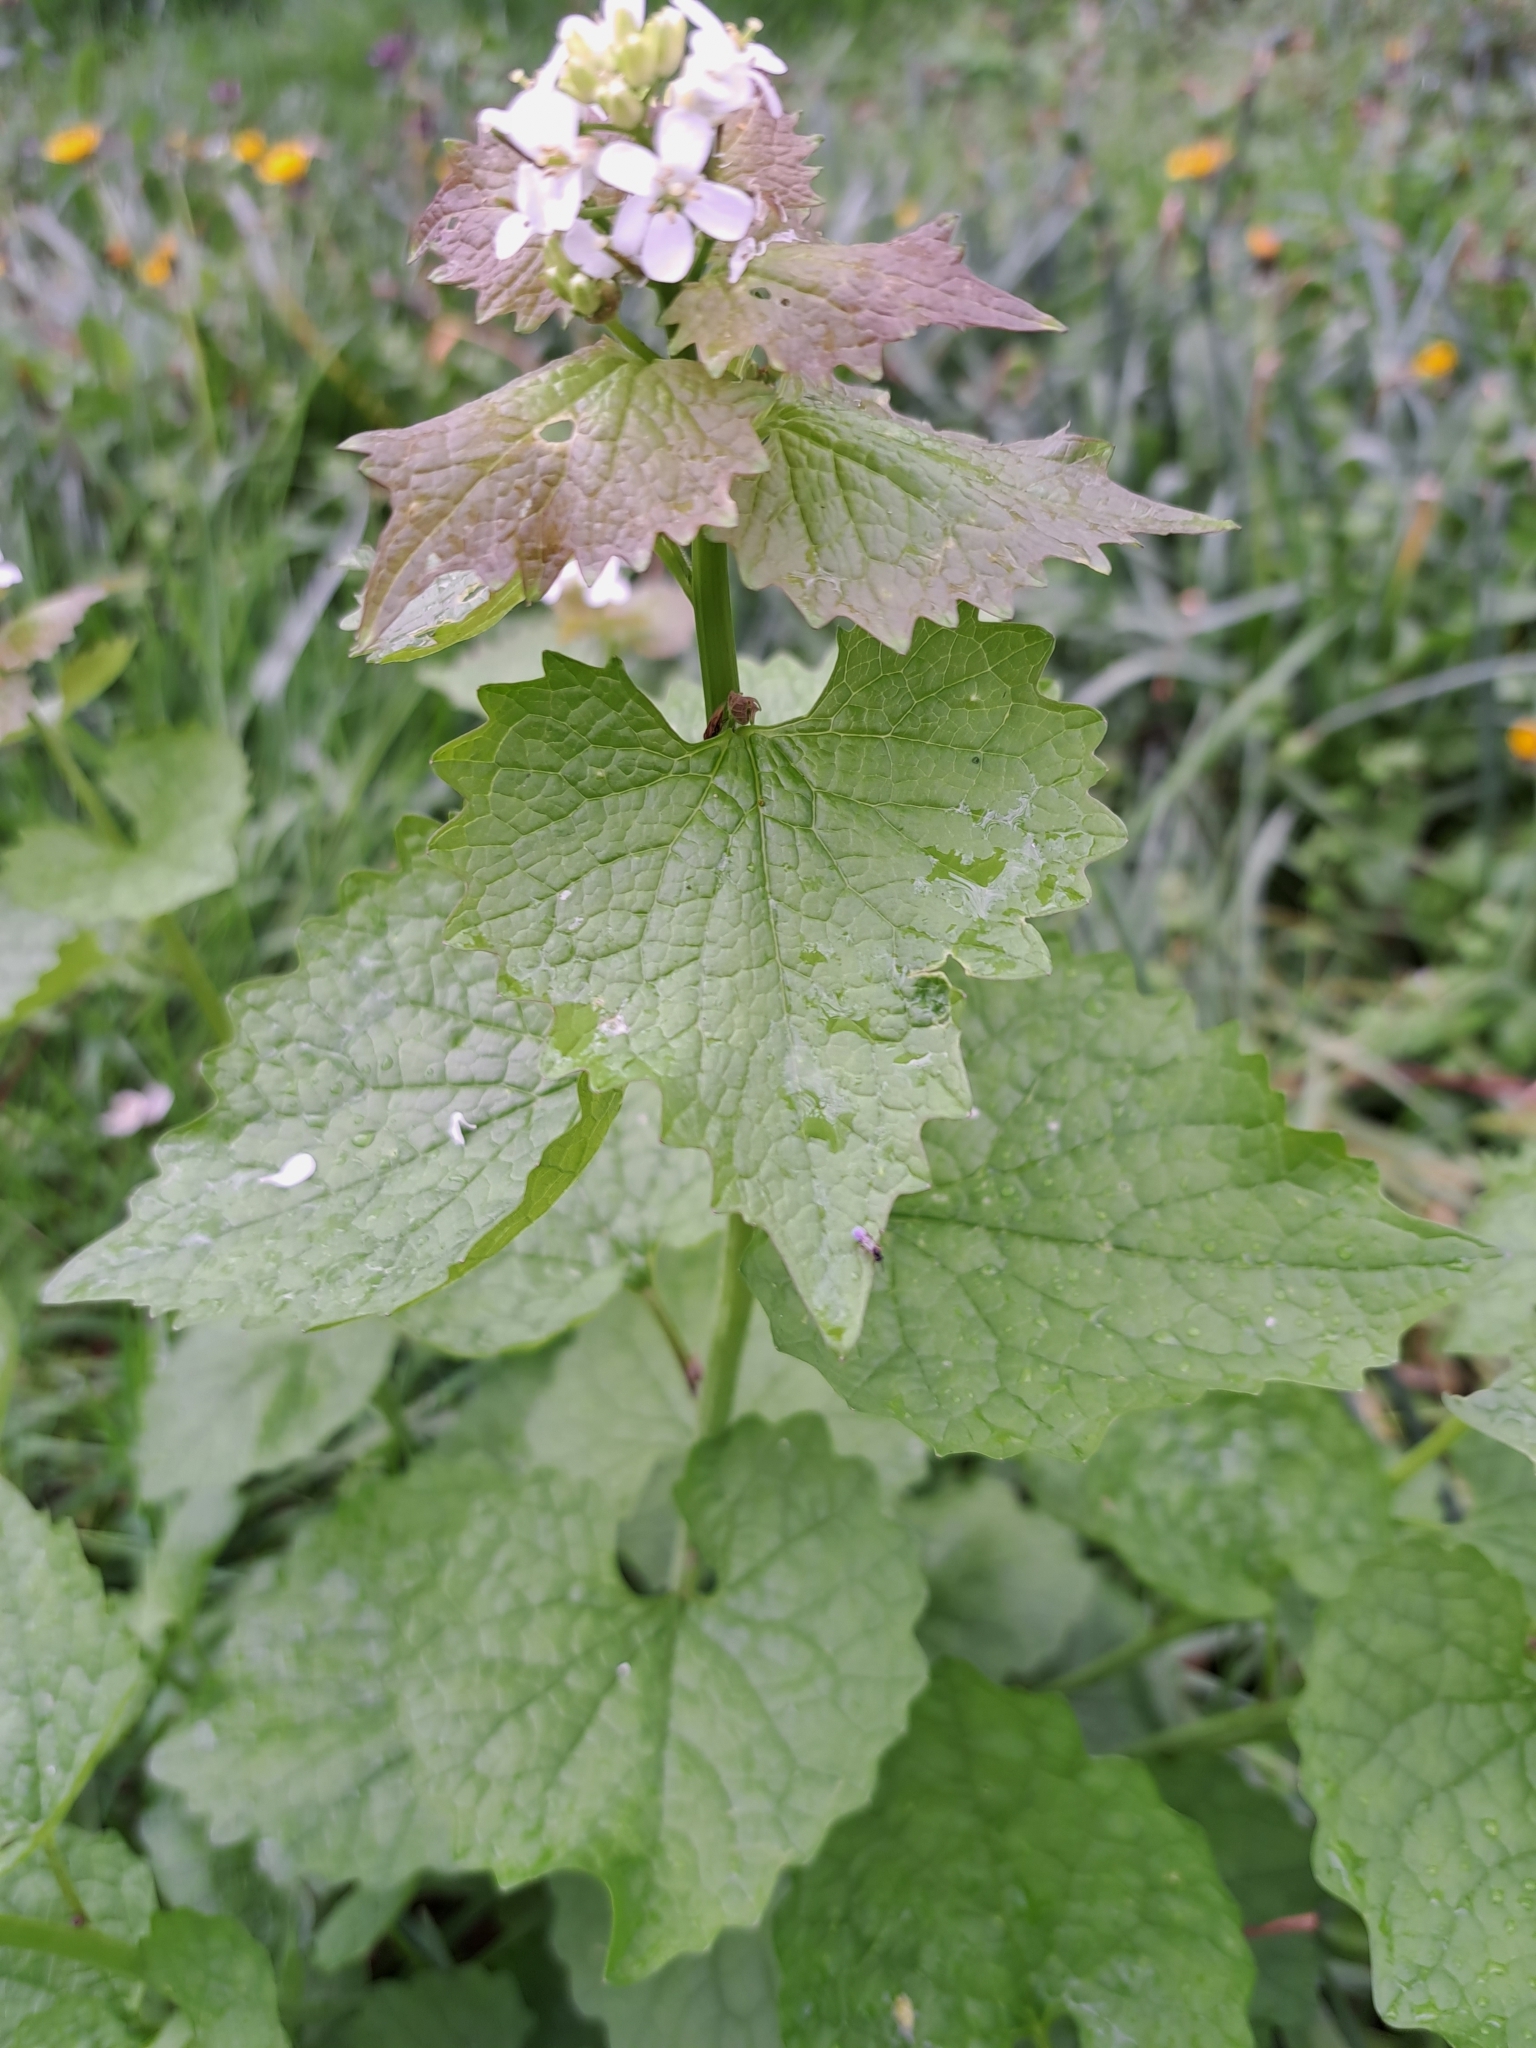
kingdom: Plantae
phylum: Tracheophyta
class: Magnoliopsida
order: Brassicales
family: Brassicaceae
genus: Alliaria
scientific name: Alliaria petiolata
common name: Garlic mustard
